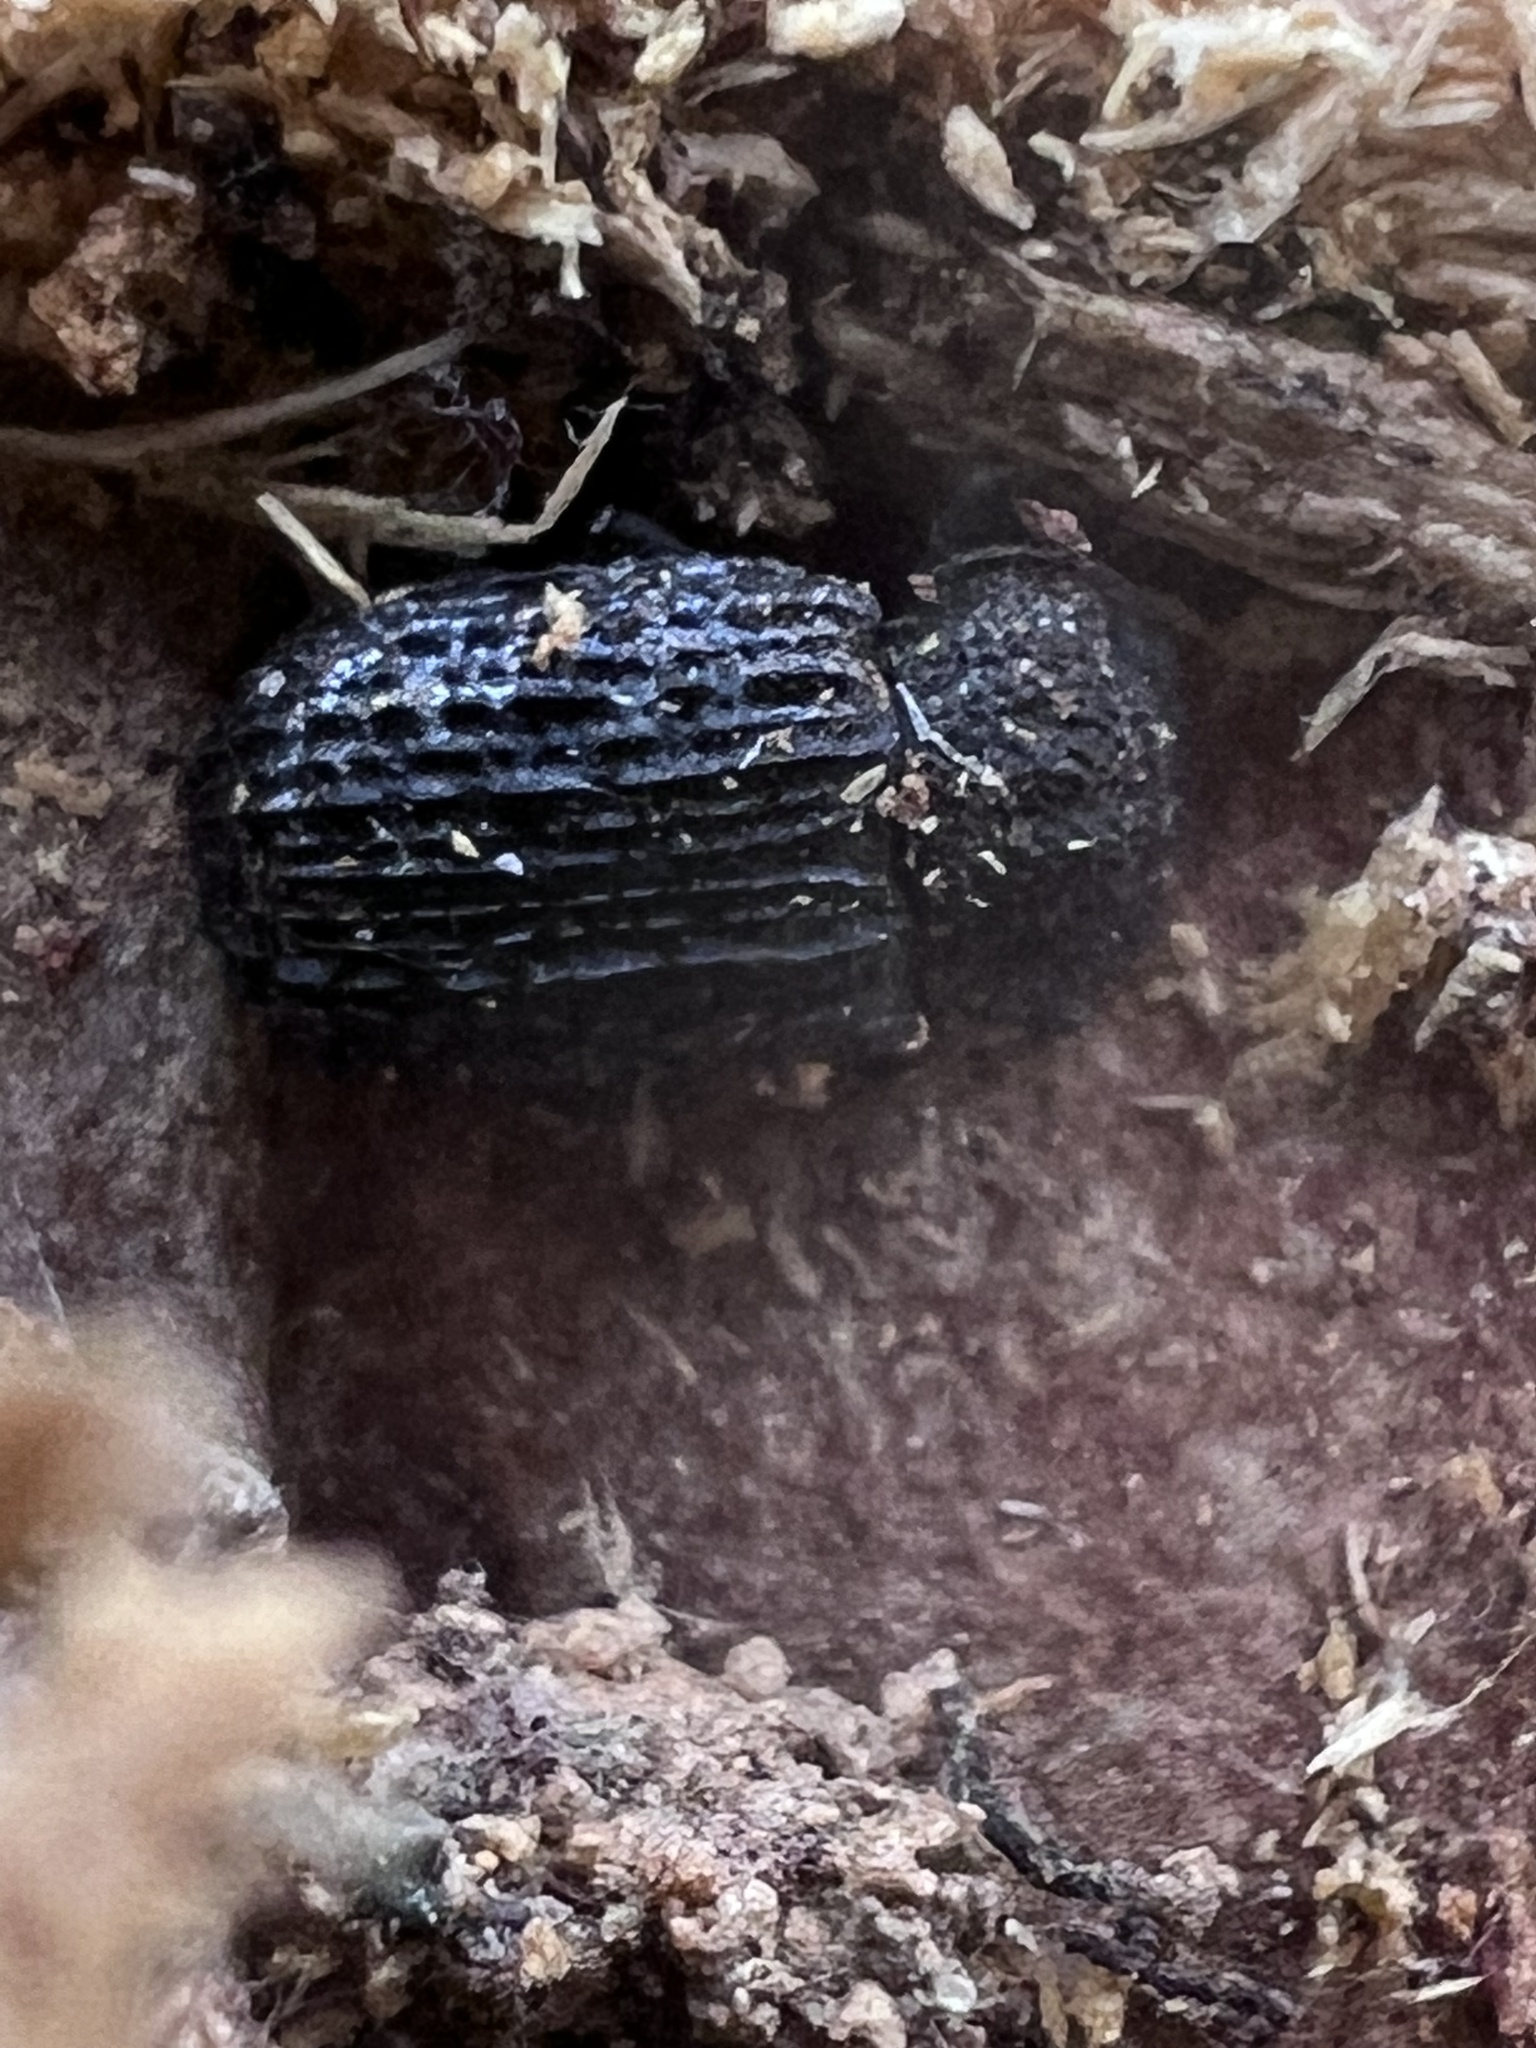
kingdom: Animalia
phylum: Arthropoda
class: Insecta
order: Coleoptera
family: Tenebrionidae
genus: Bolitophagus
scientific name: Bolitophagus corticola
